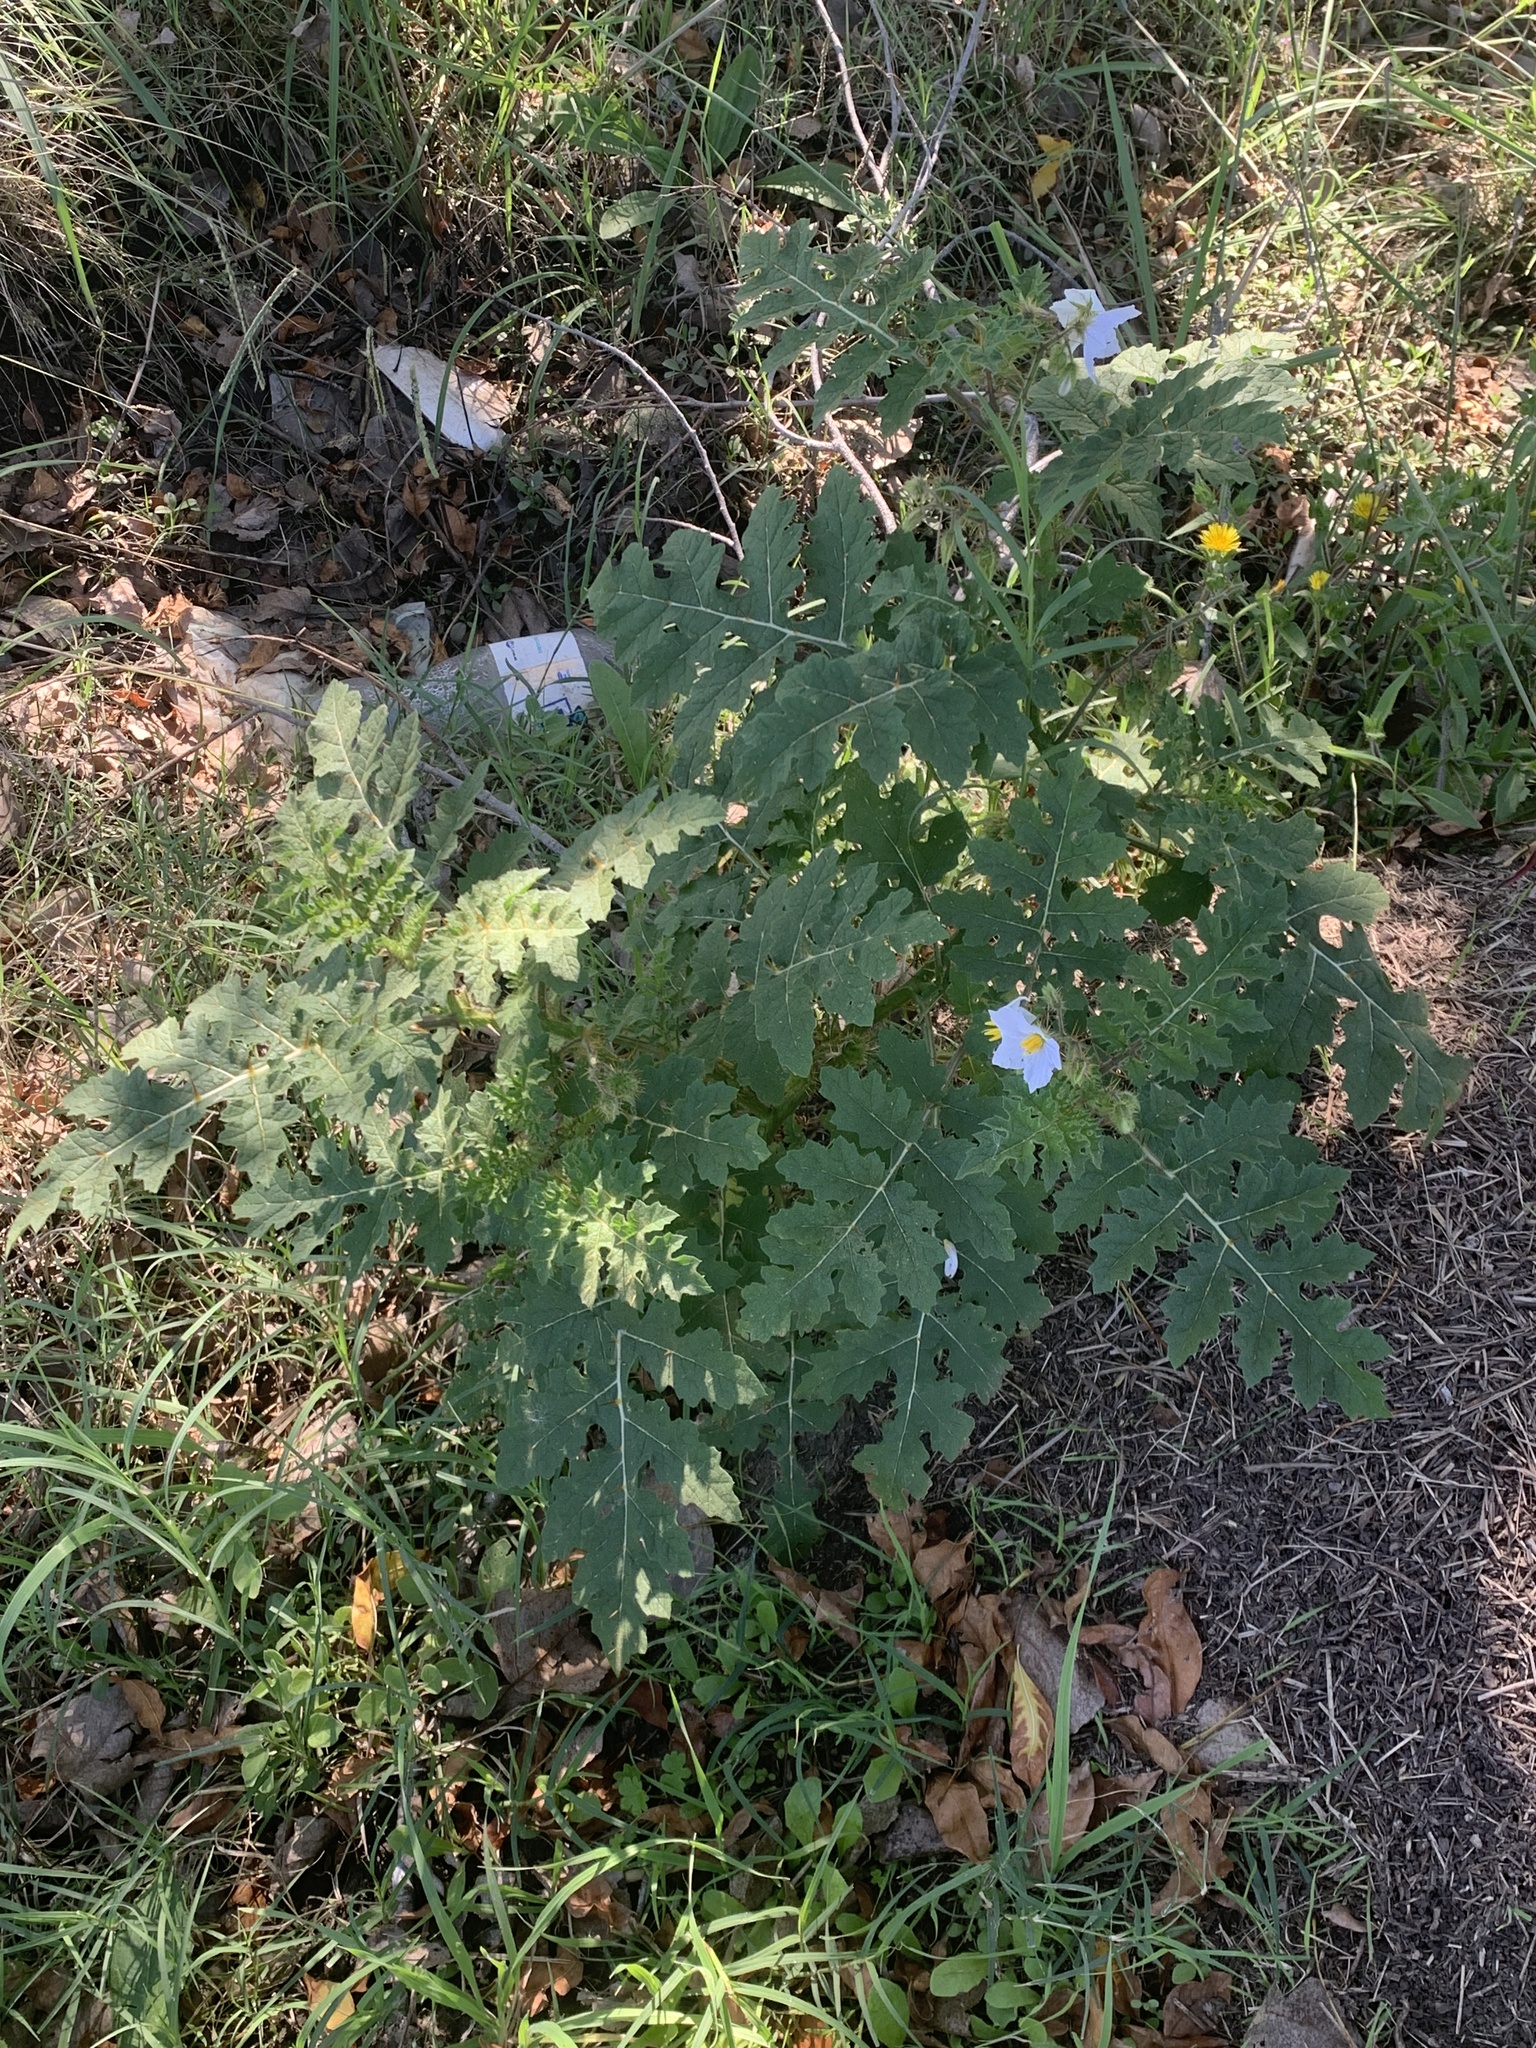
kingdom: Plantae
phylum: Tracheophyta
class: Magnoliopsida
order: Solanales
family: Solanaceae
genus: Solanum
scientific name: Solanum sisymbriifolium
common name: Red buffalo-bur
